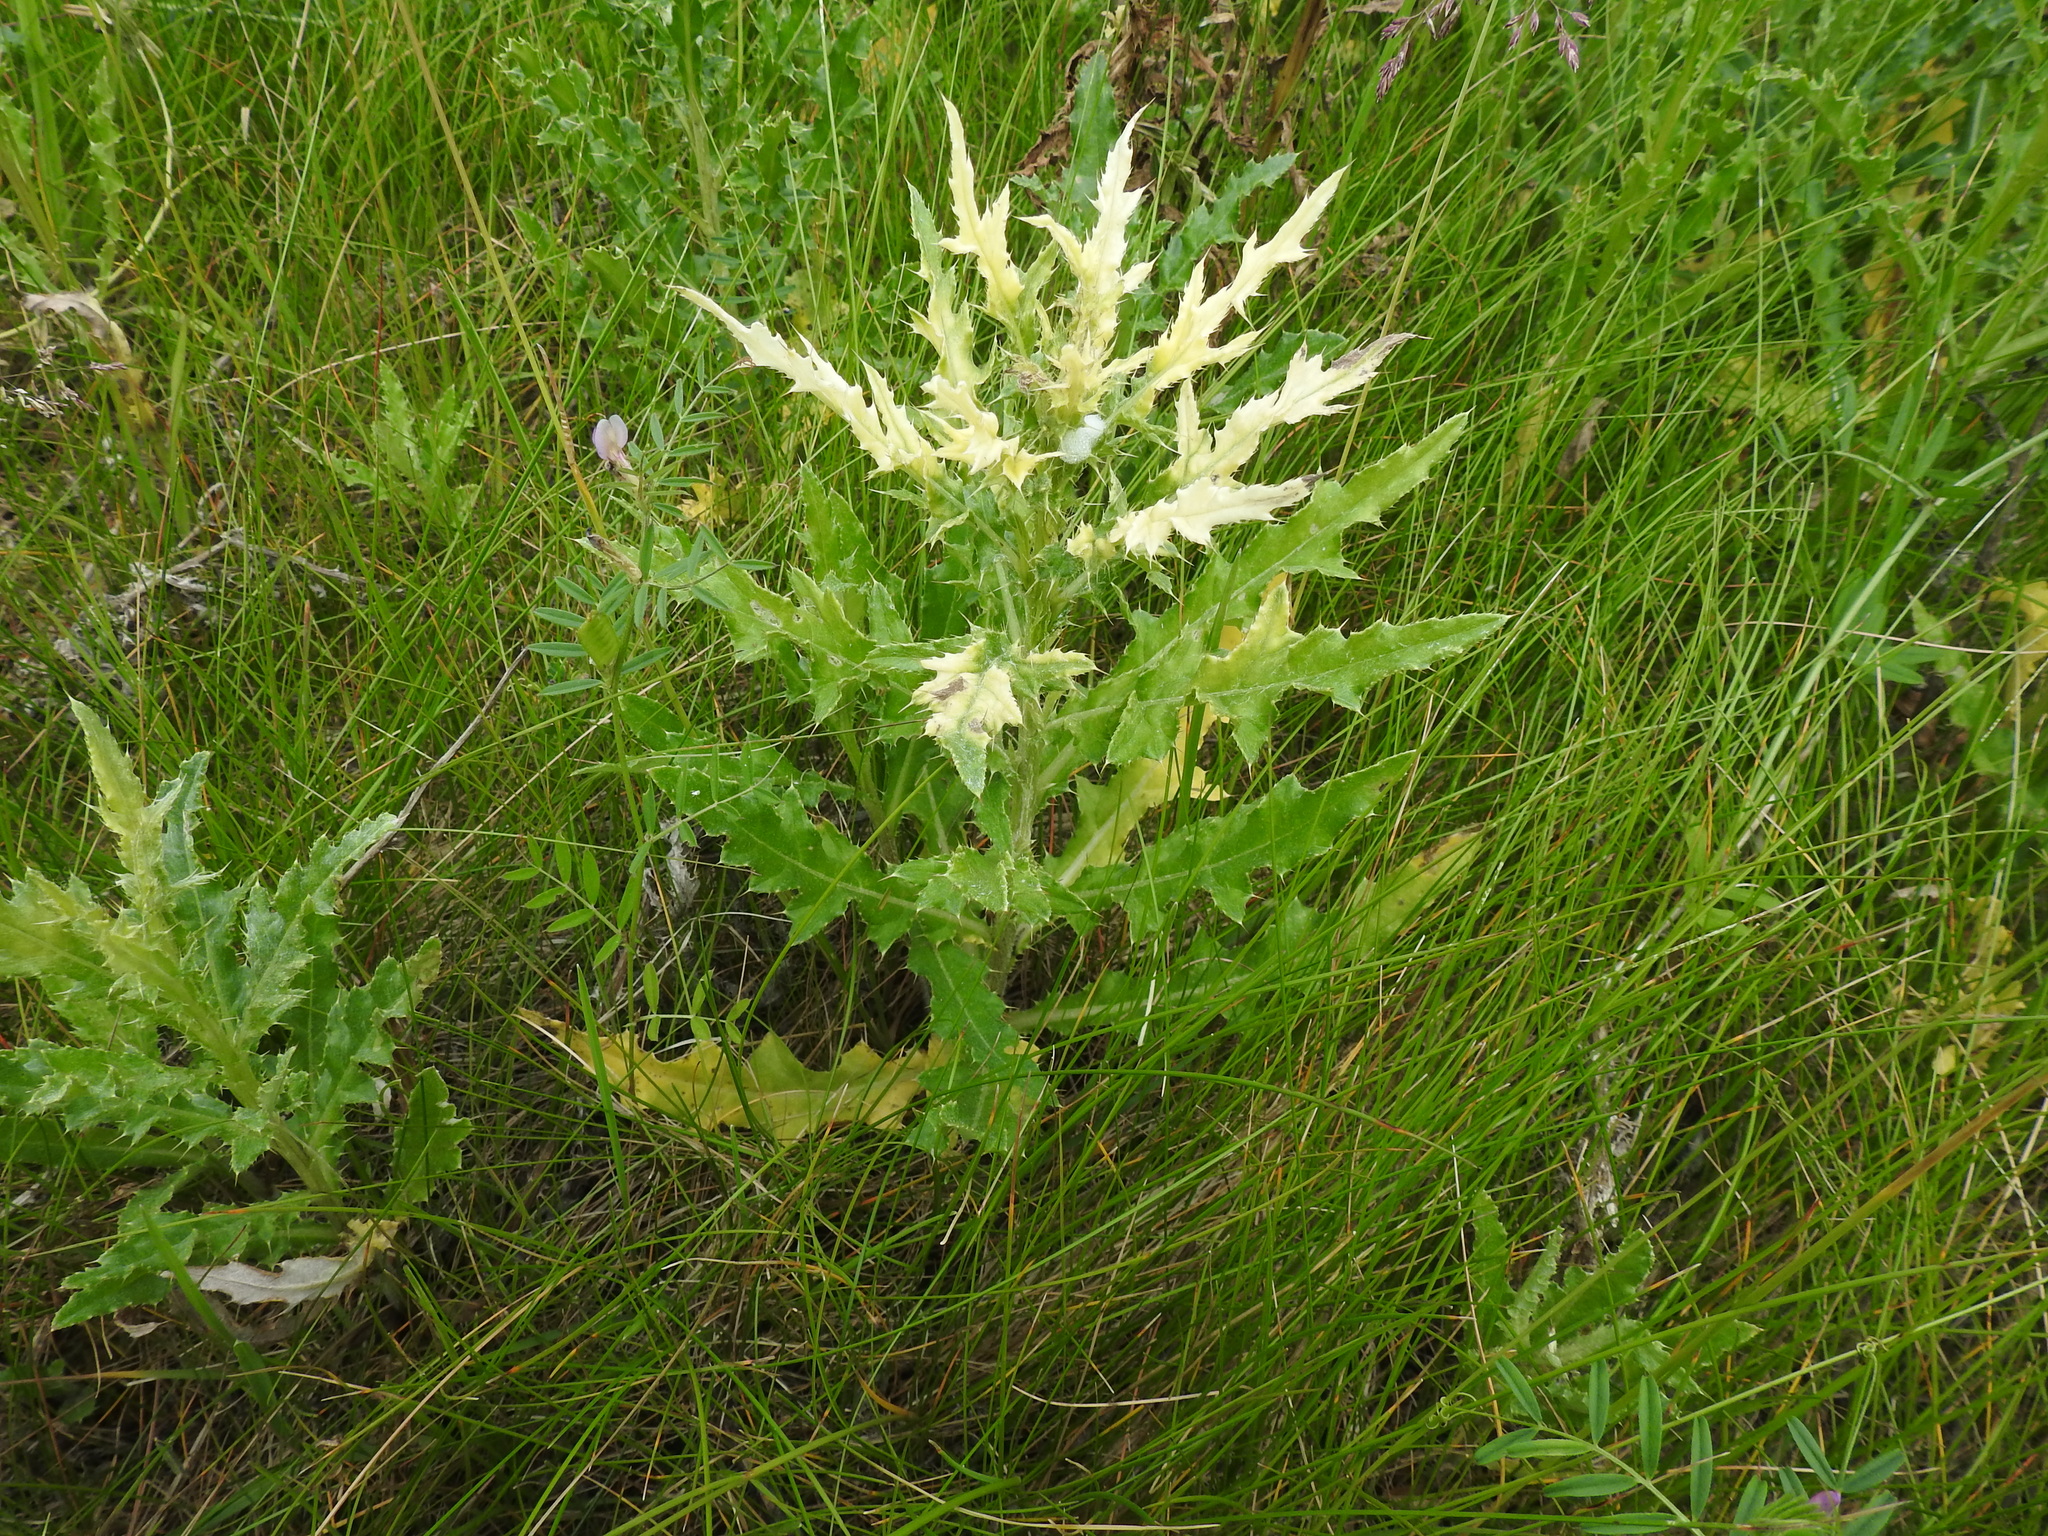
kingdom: Plantae
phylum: Tracheophyta
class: Magnoliopsida
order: Asterales
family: Asteraceae
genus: Cirsium
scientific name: Cirsium arvense
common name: Creeping thistle
